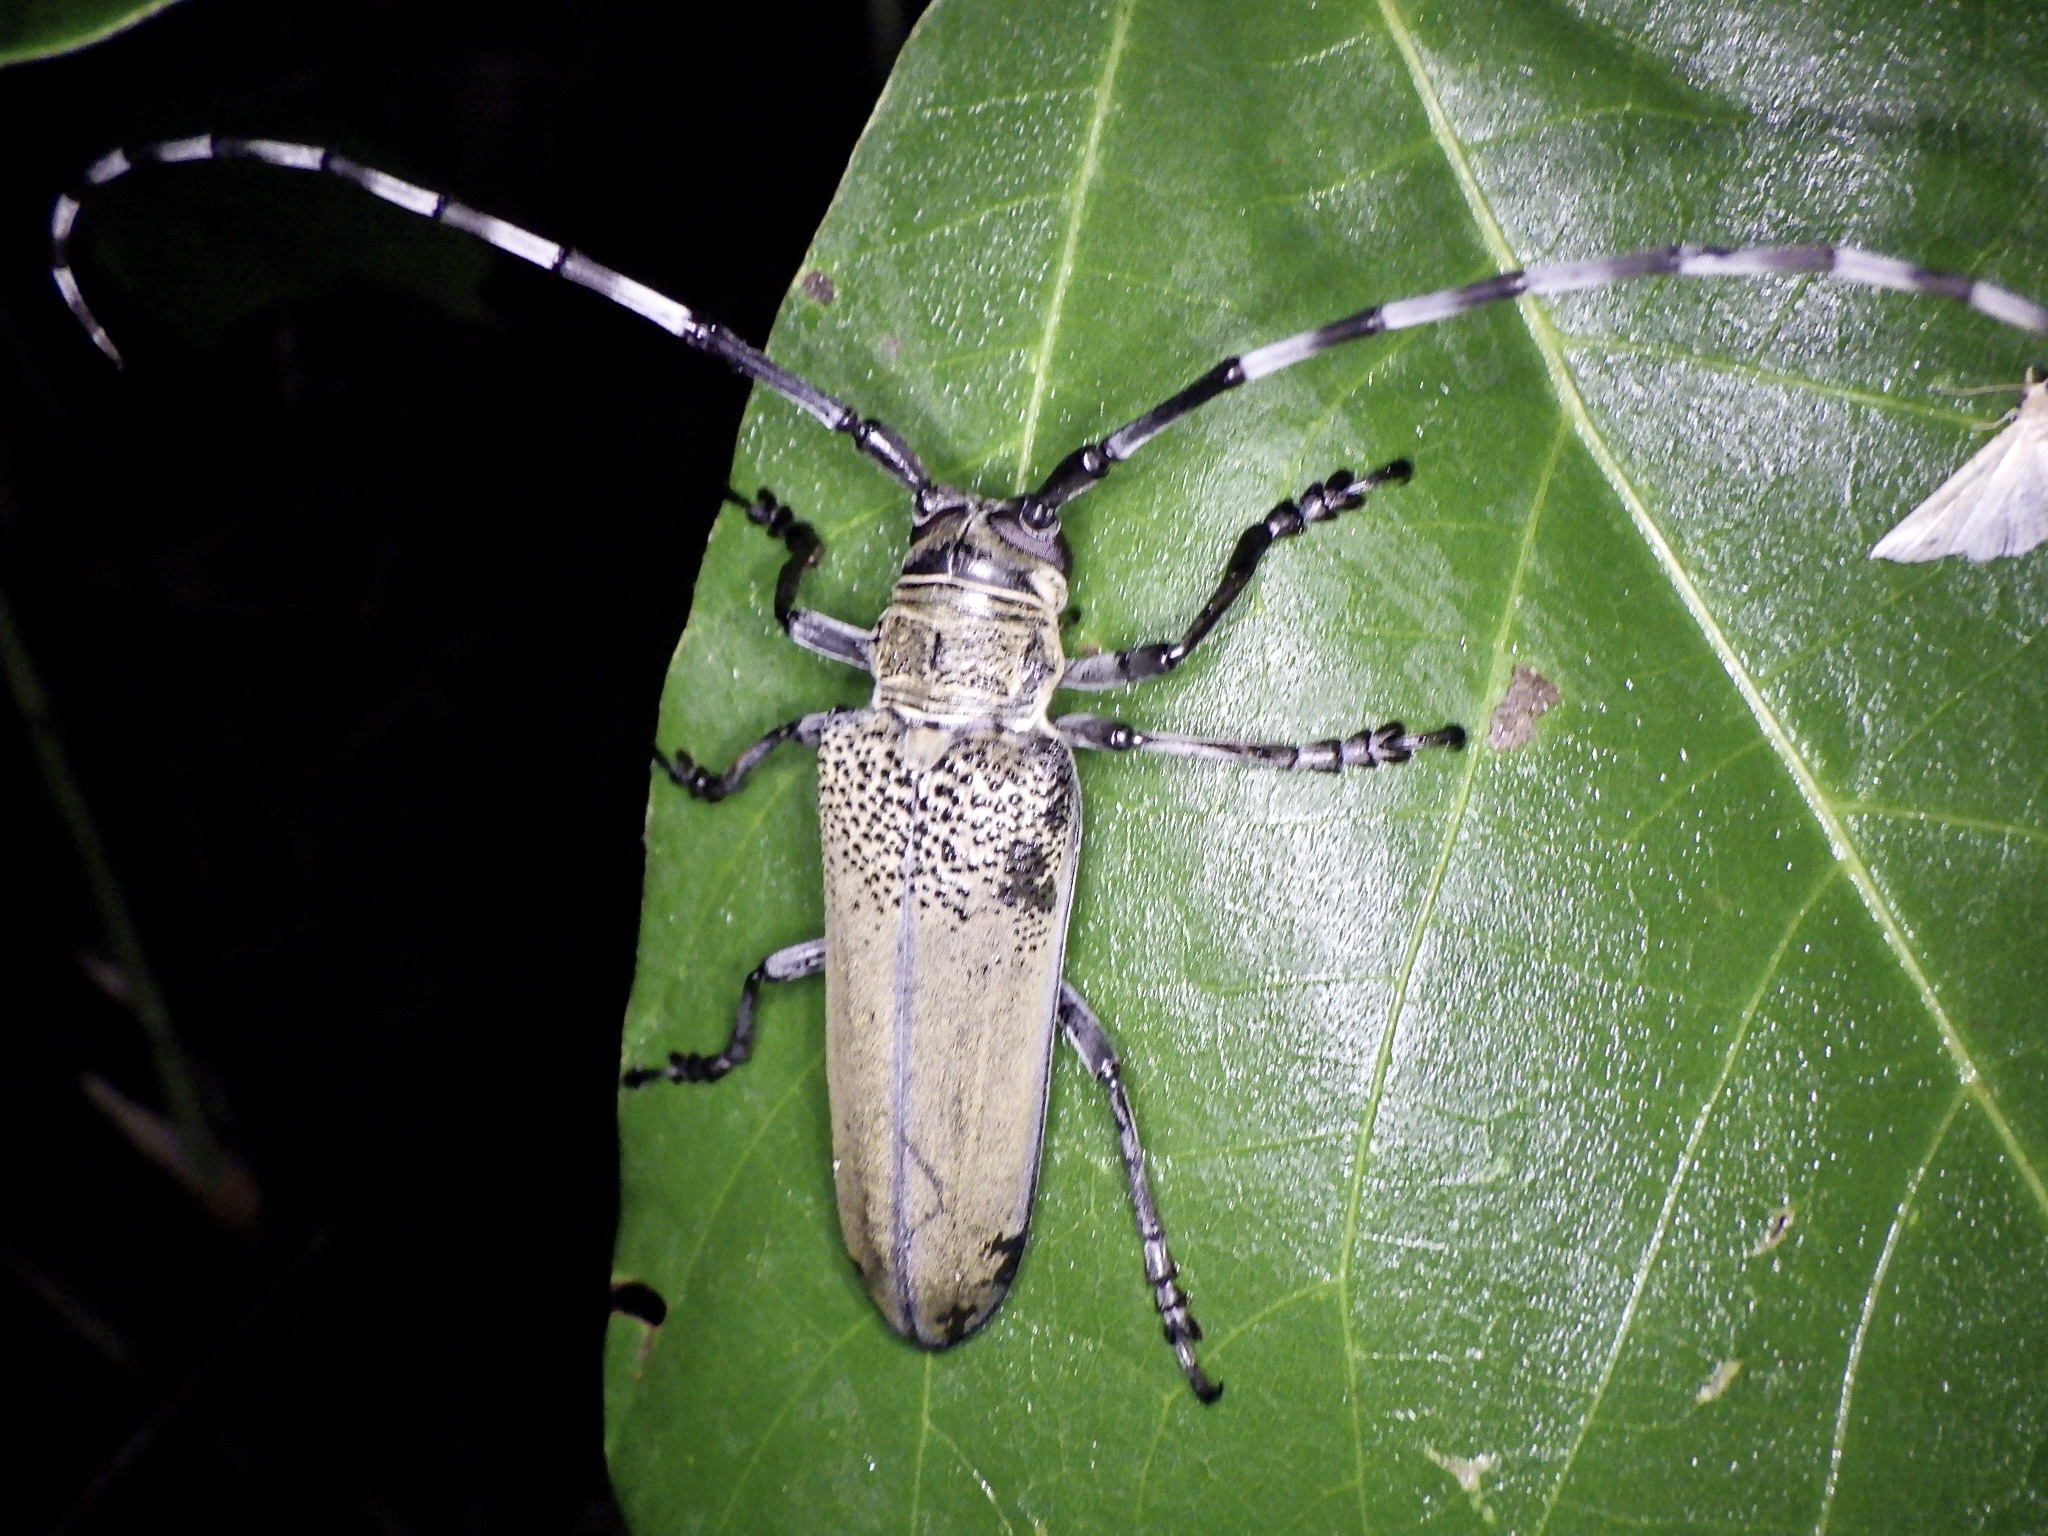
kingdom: Animalia
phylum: Arthropoda
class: Insecta
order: Coleoptera
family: Cerambycidae
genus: Apriona
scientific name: Apriona rugicollis
